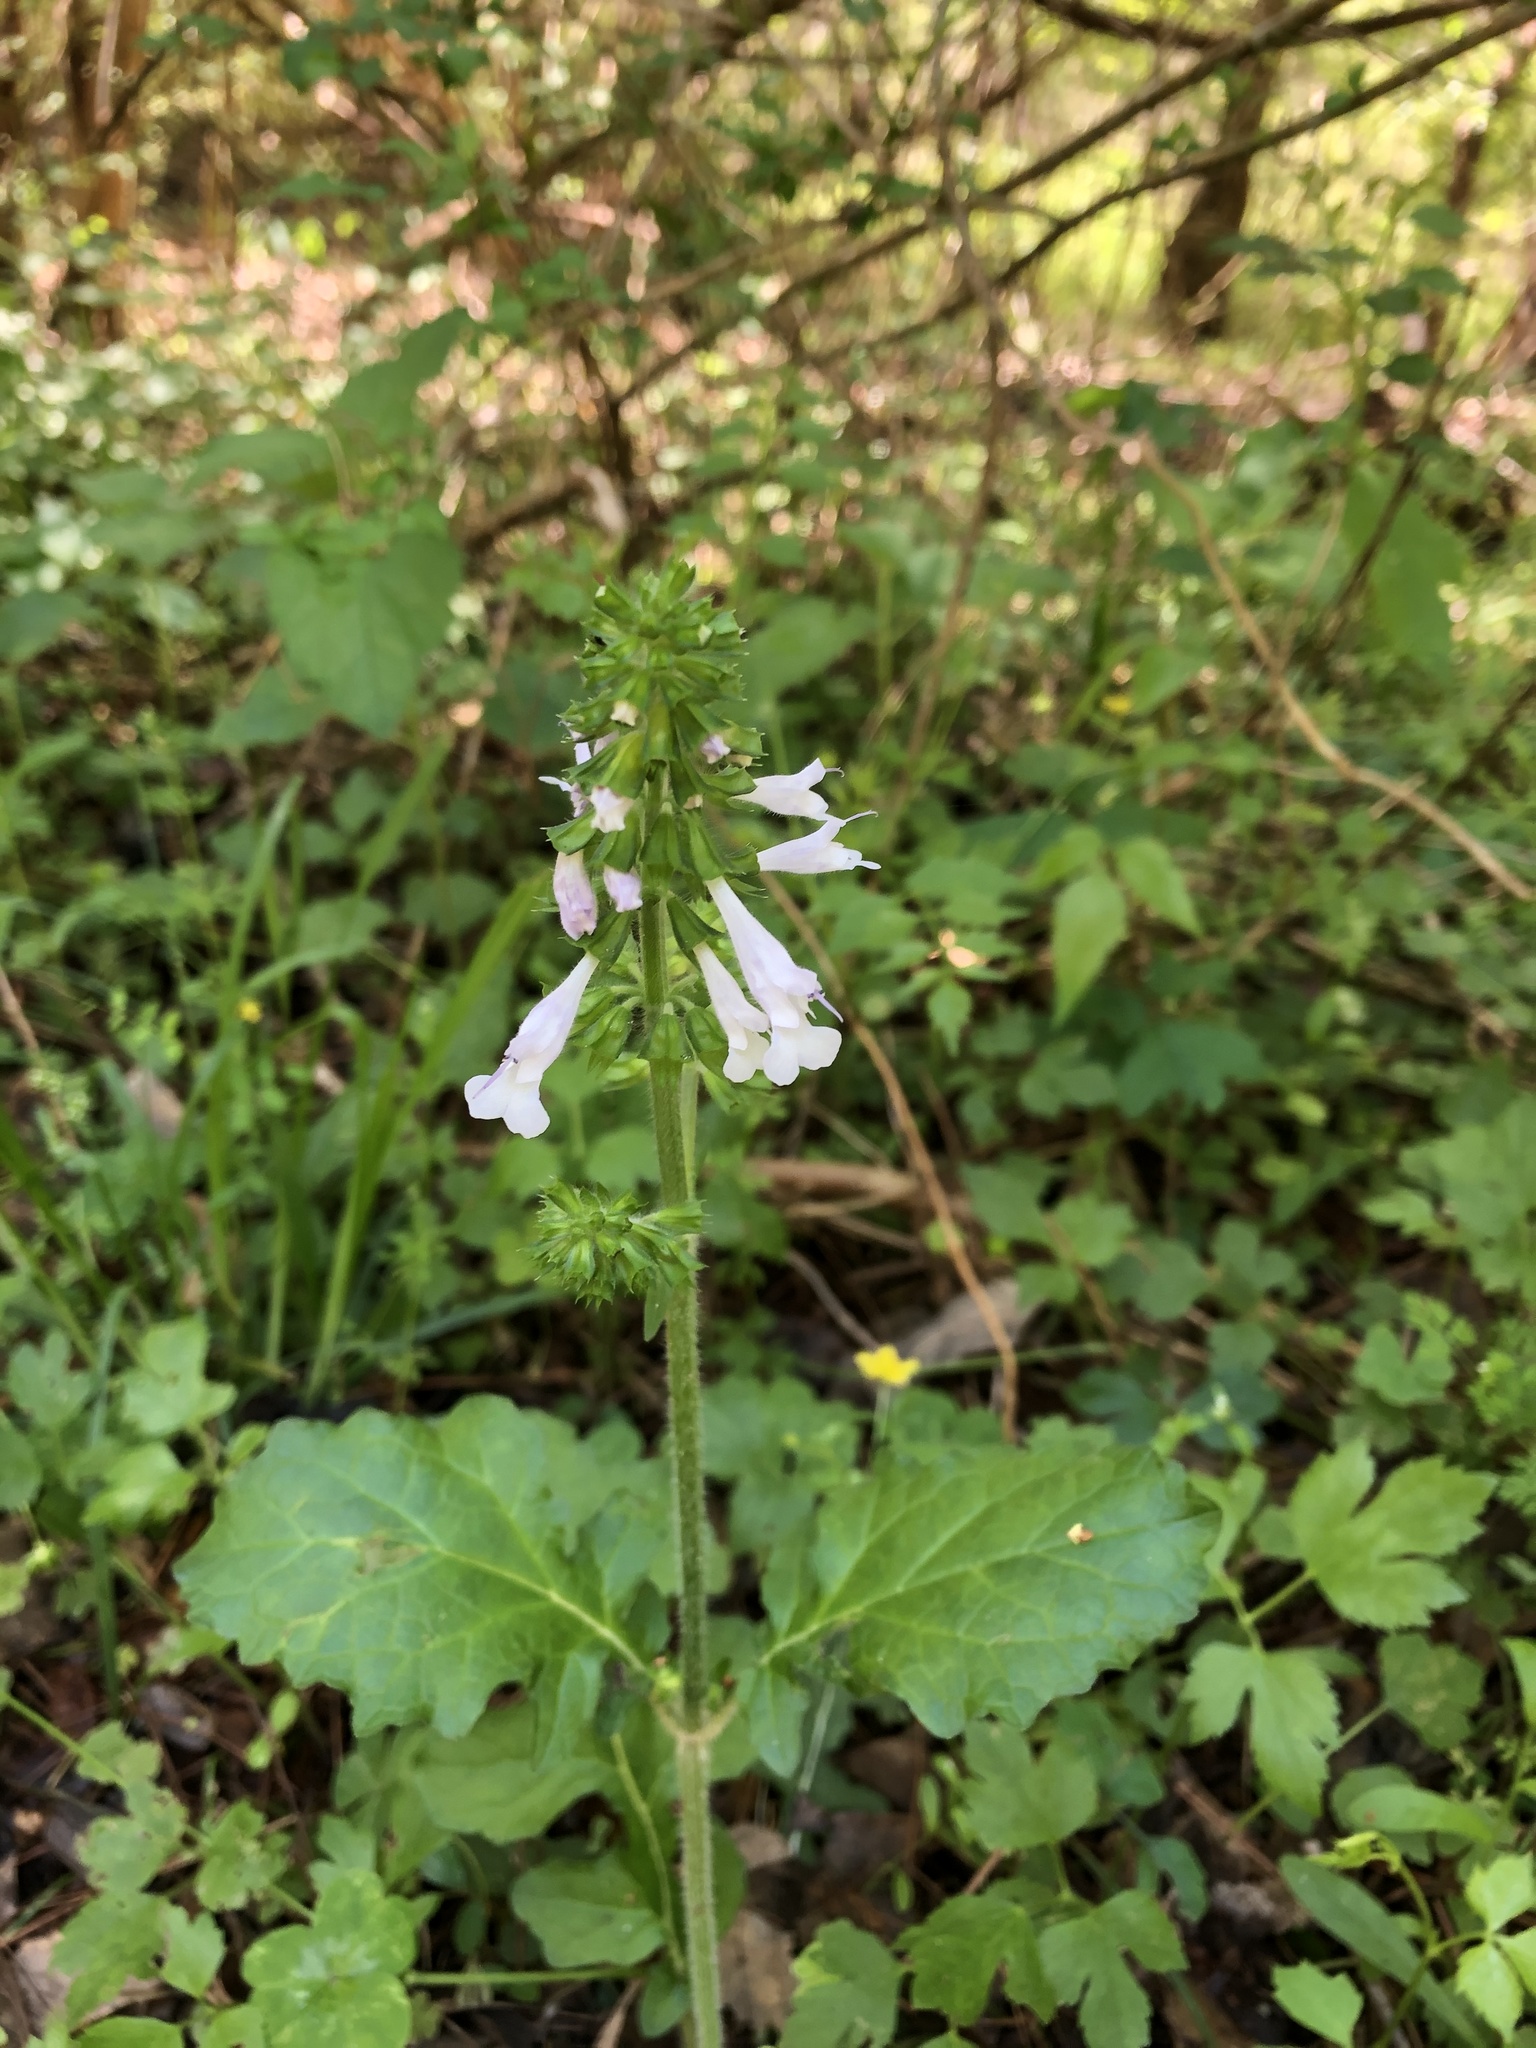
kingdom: Plantae
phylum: Tracheophyta
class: Magnoliopsida
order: Lamiales
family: Lamiaceae
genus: Salvia
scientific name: Salvia lyrata
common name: Cancerweed
